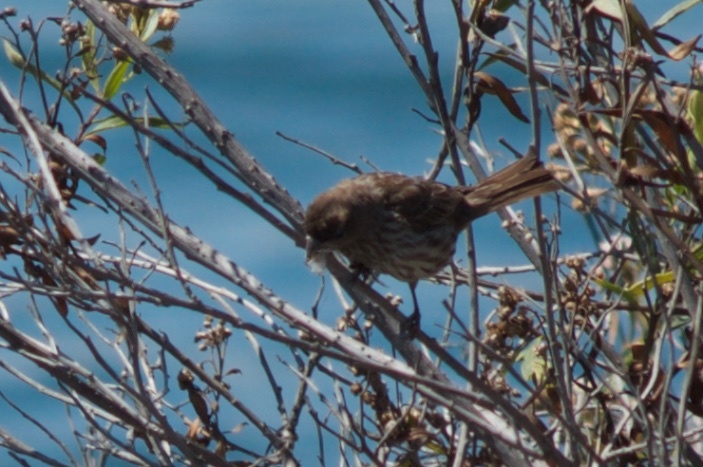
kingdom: Animalia
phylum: Chordata
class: Aves
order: Passeriformes
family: Fringillidae
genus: Haemorhous
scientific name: Haemorhous mexicanus
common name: House finch
